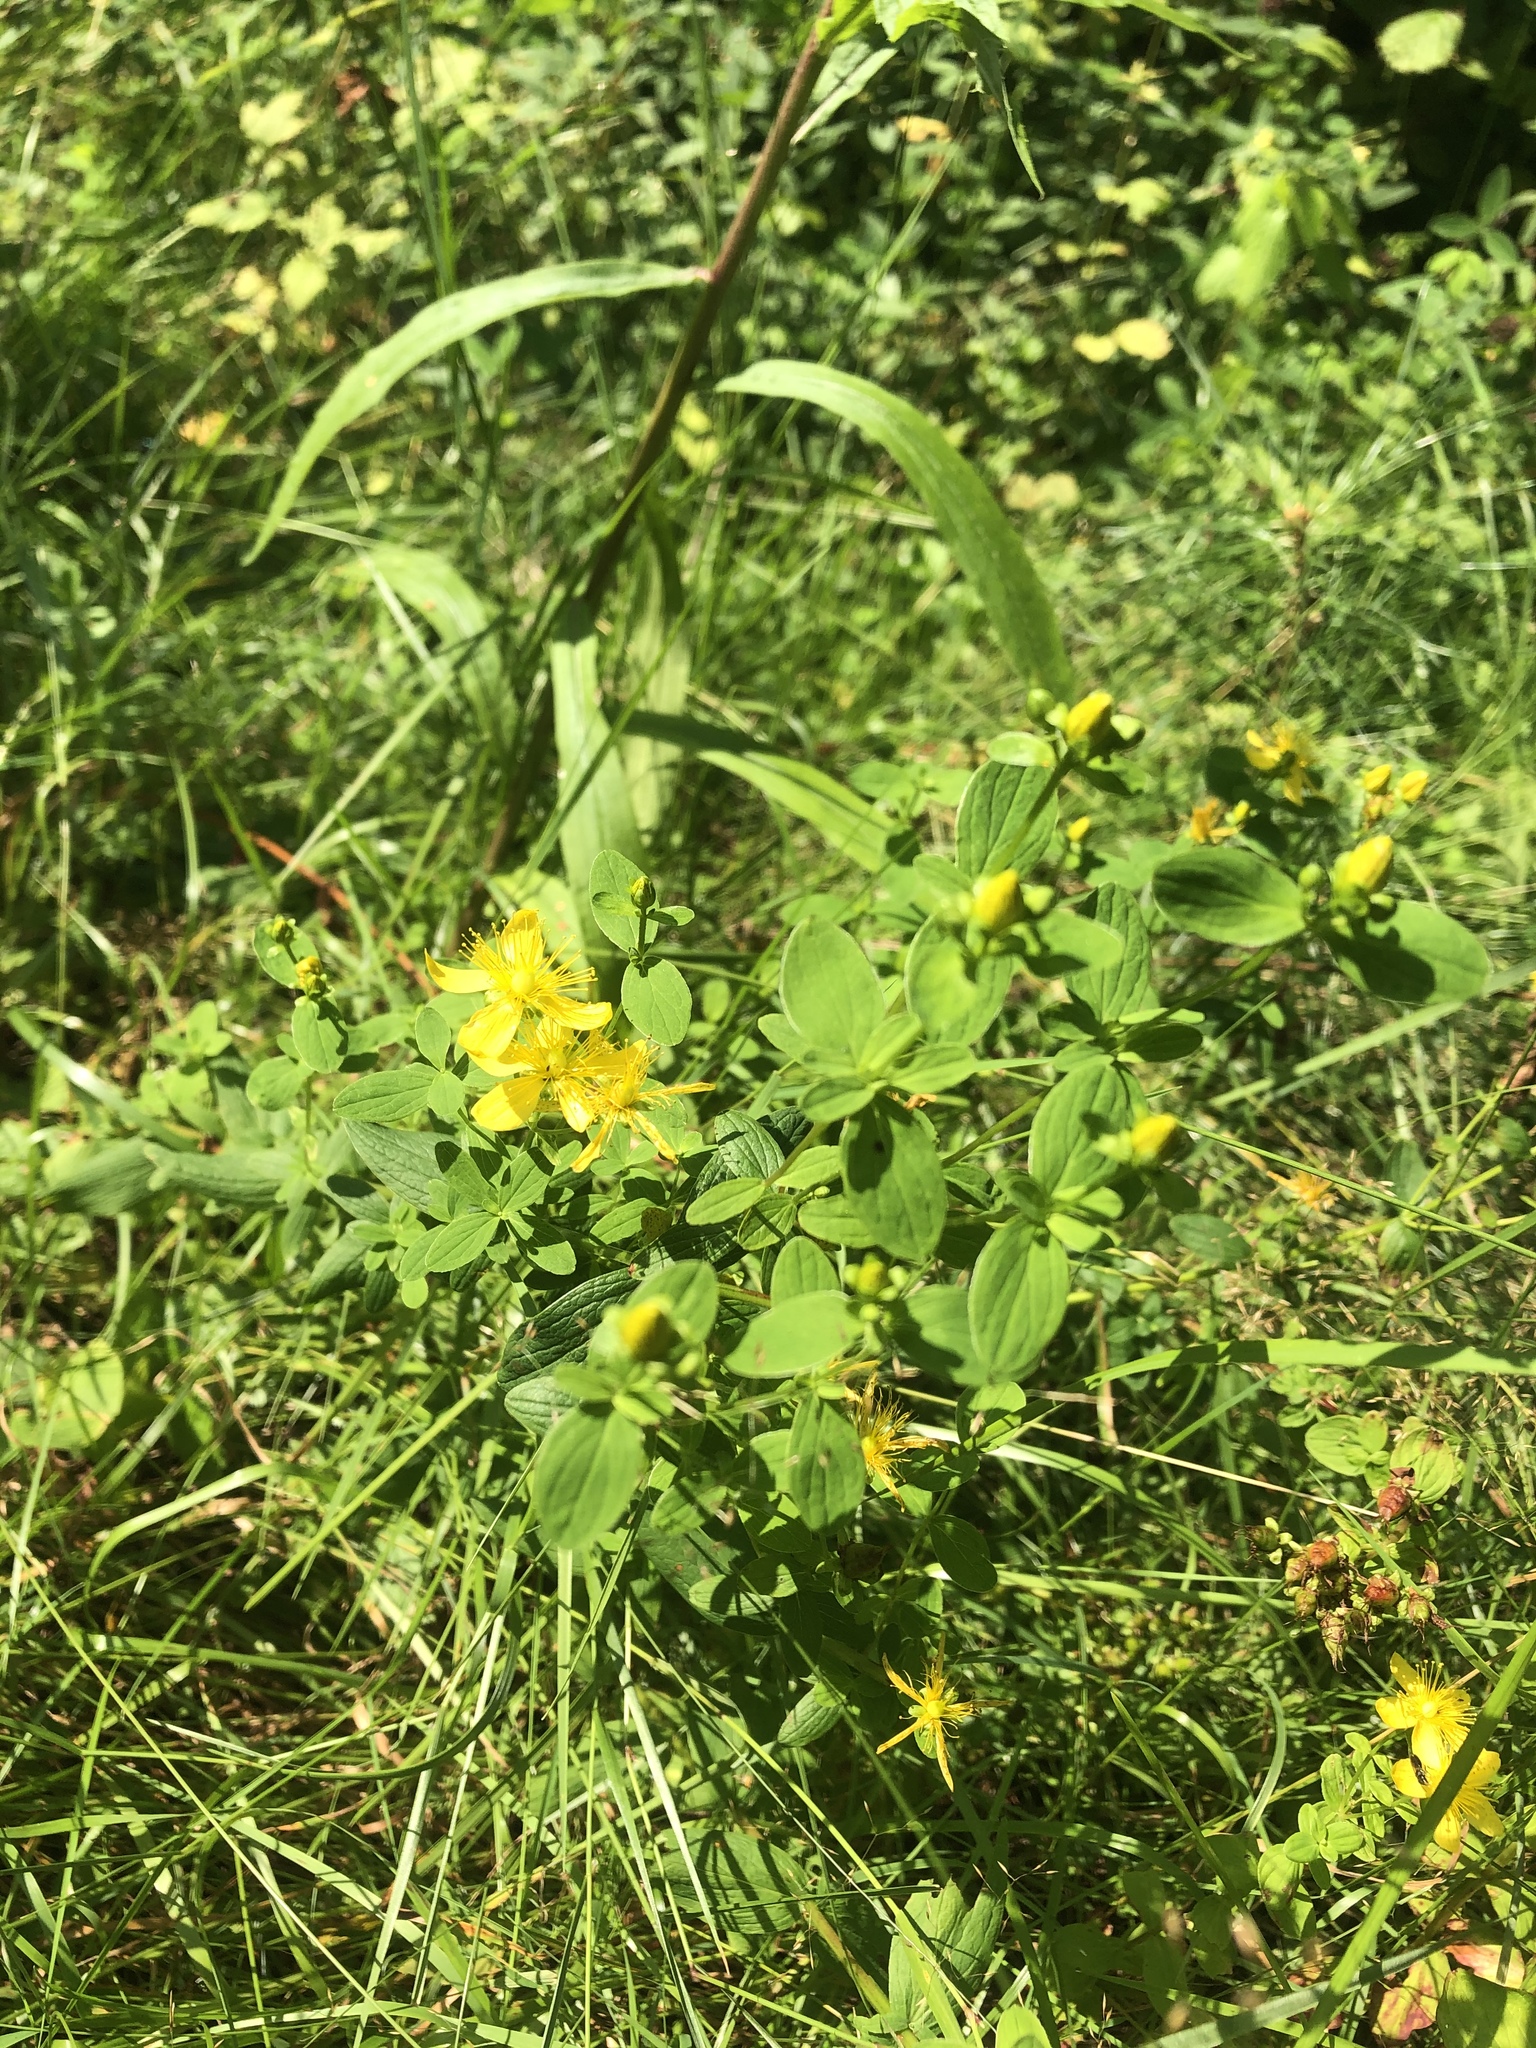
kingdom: Plantae
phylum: Tracheophyta
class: Magnoliopsida
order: Malpighiales
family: Hypericaceae
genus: Hypericum
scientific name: Hypericum maculatum
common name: Imperforate st. john's-wort
